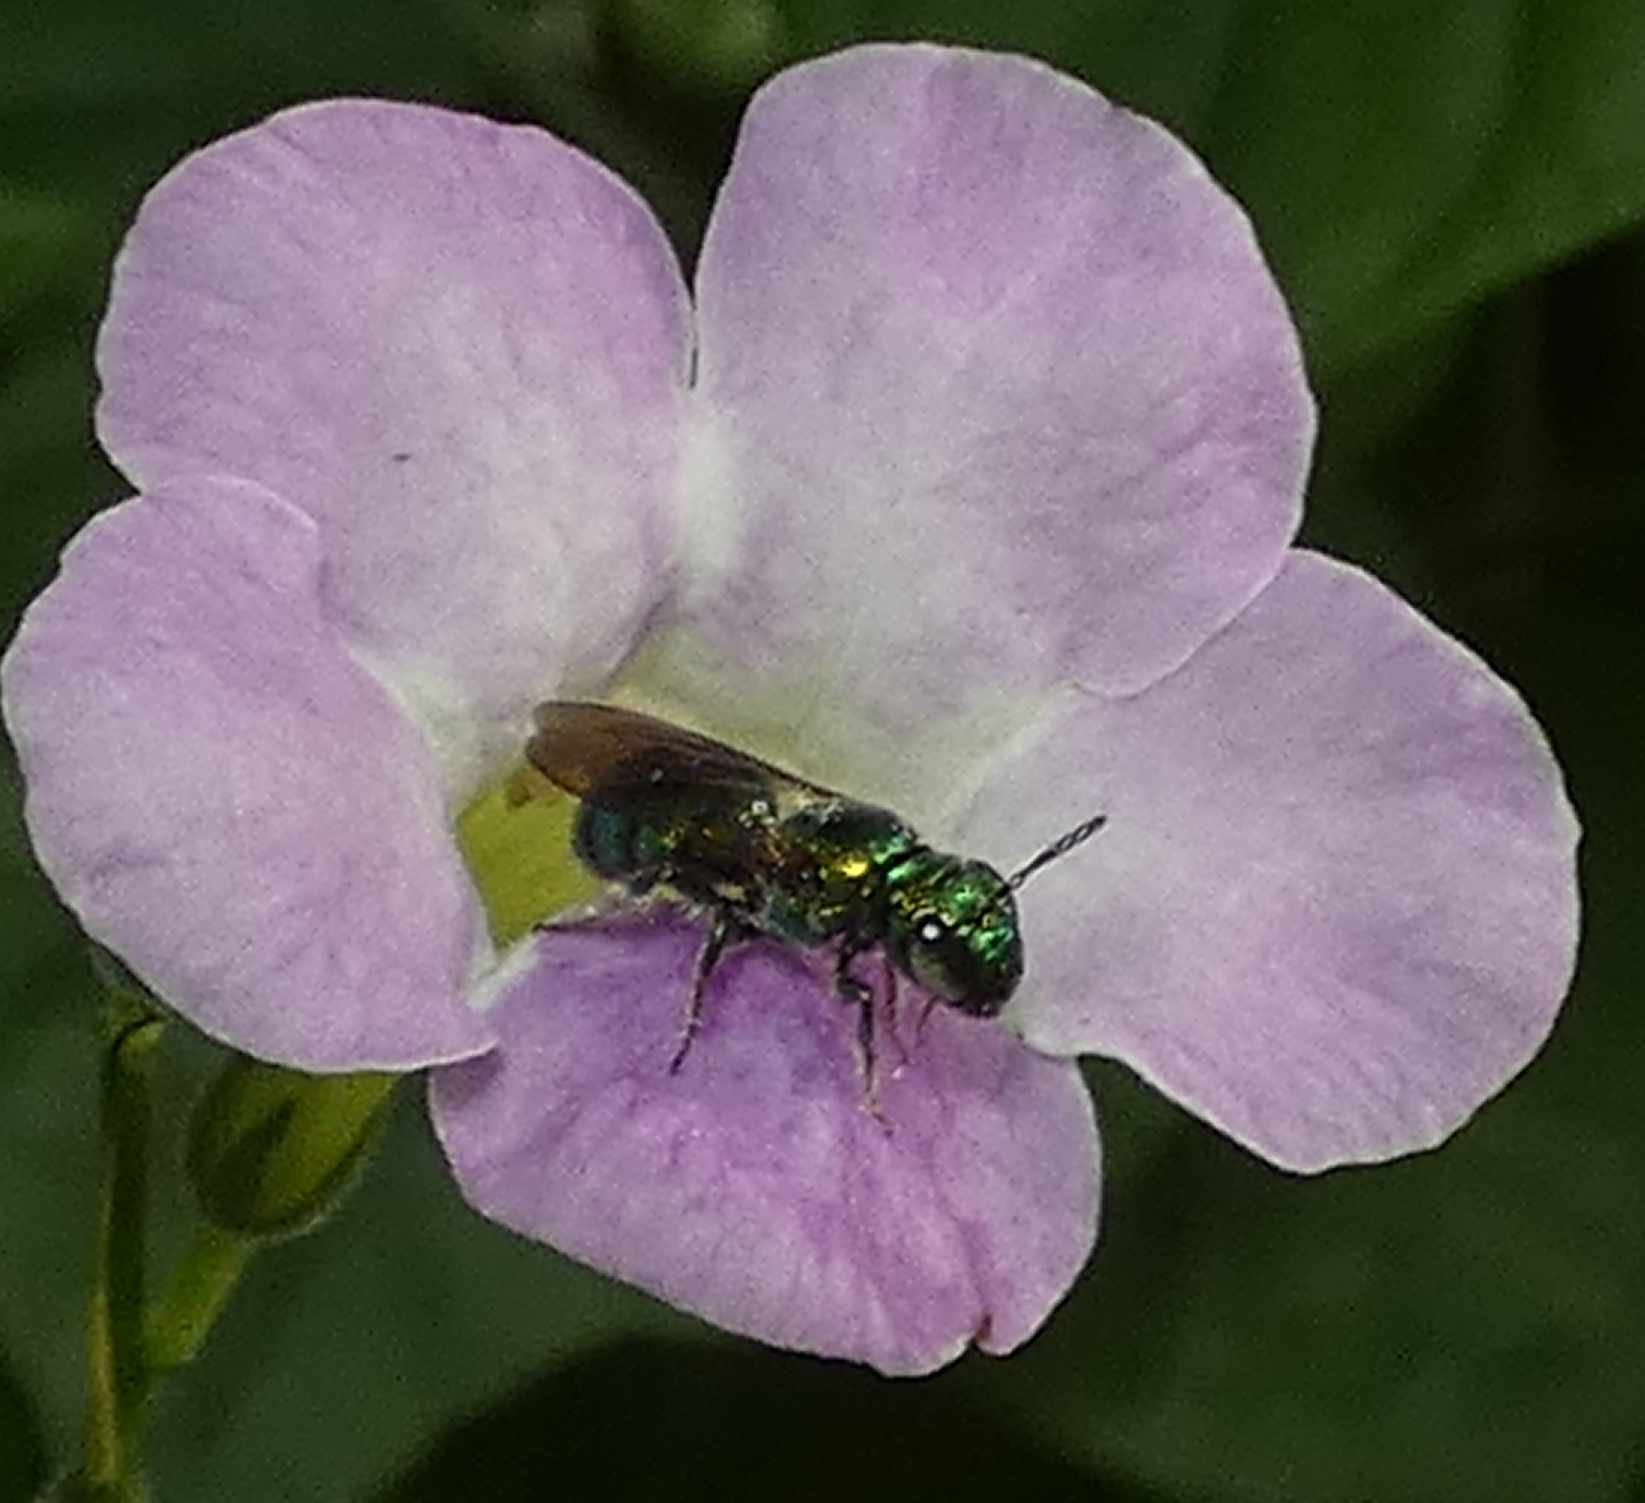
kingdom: Animalia
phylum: Arthropoda
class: Insecta
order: Hymenoptera
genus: Calloceratina
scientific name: Calloceratina
